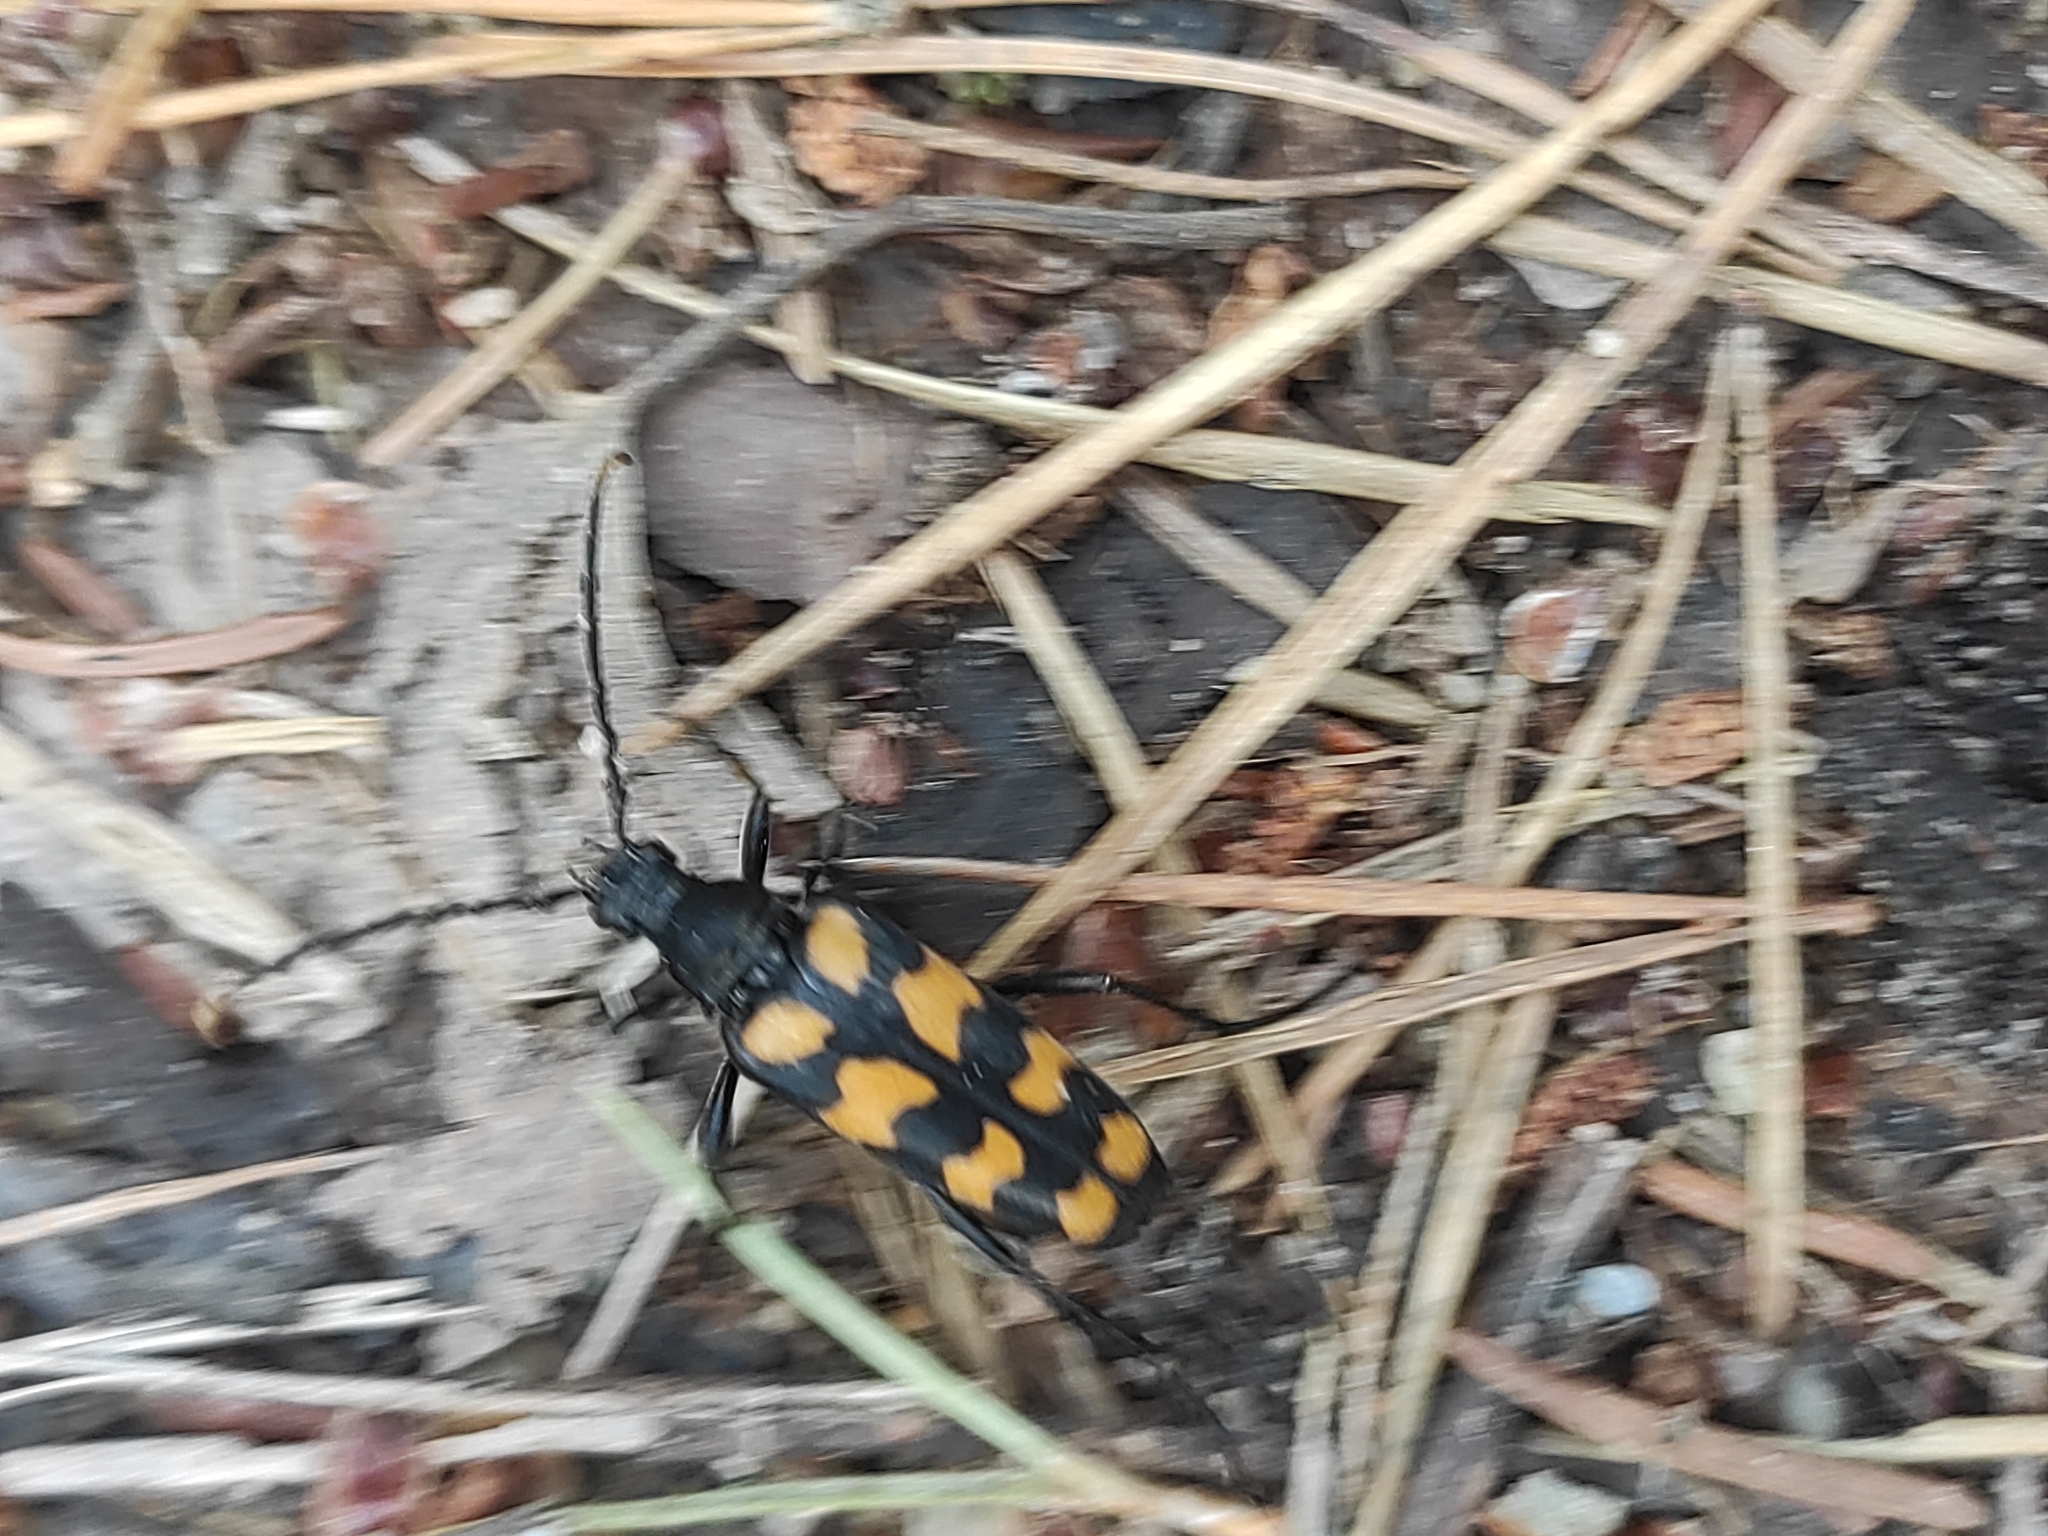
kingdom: Animalia
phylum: Arthropoda
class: Insecta
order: Coleoptera
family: Cerambycidae
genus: Leptura
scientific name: Leptura quadrifasciata
